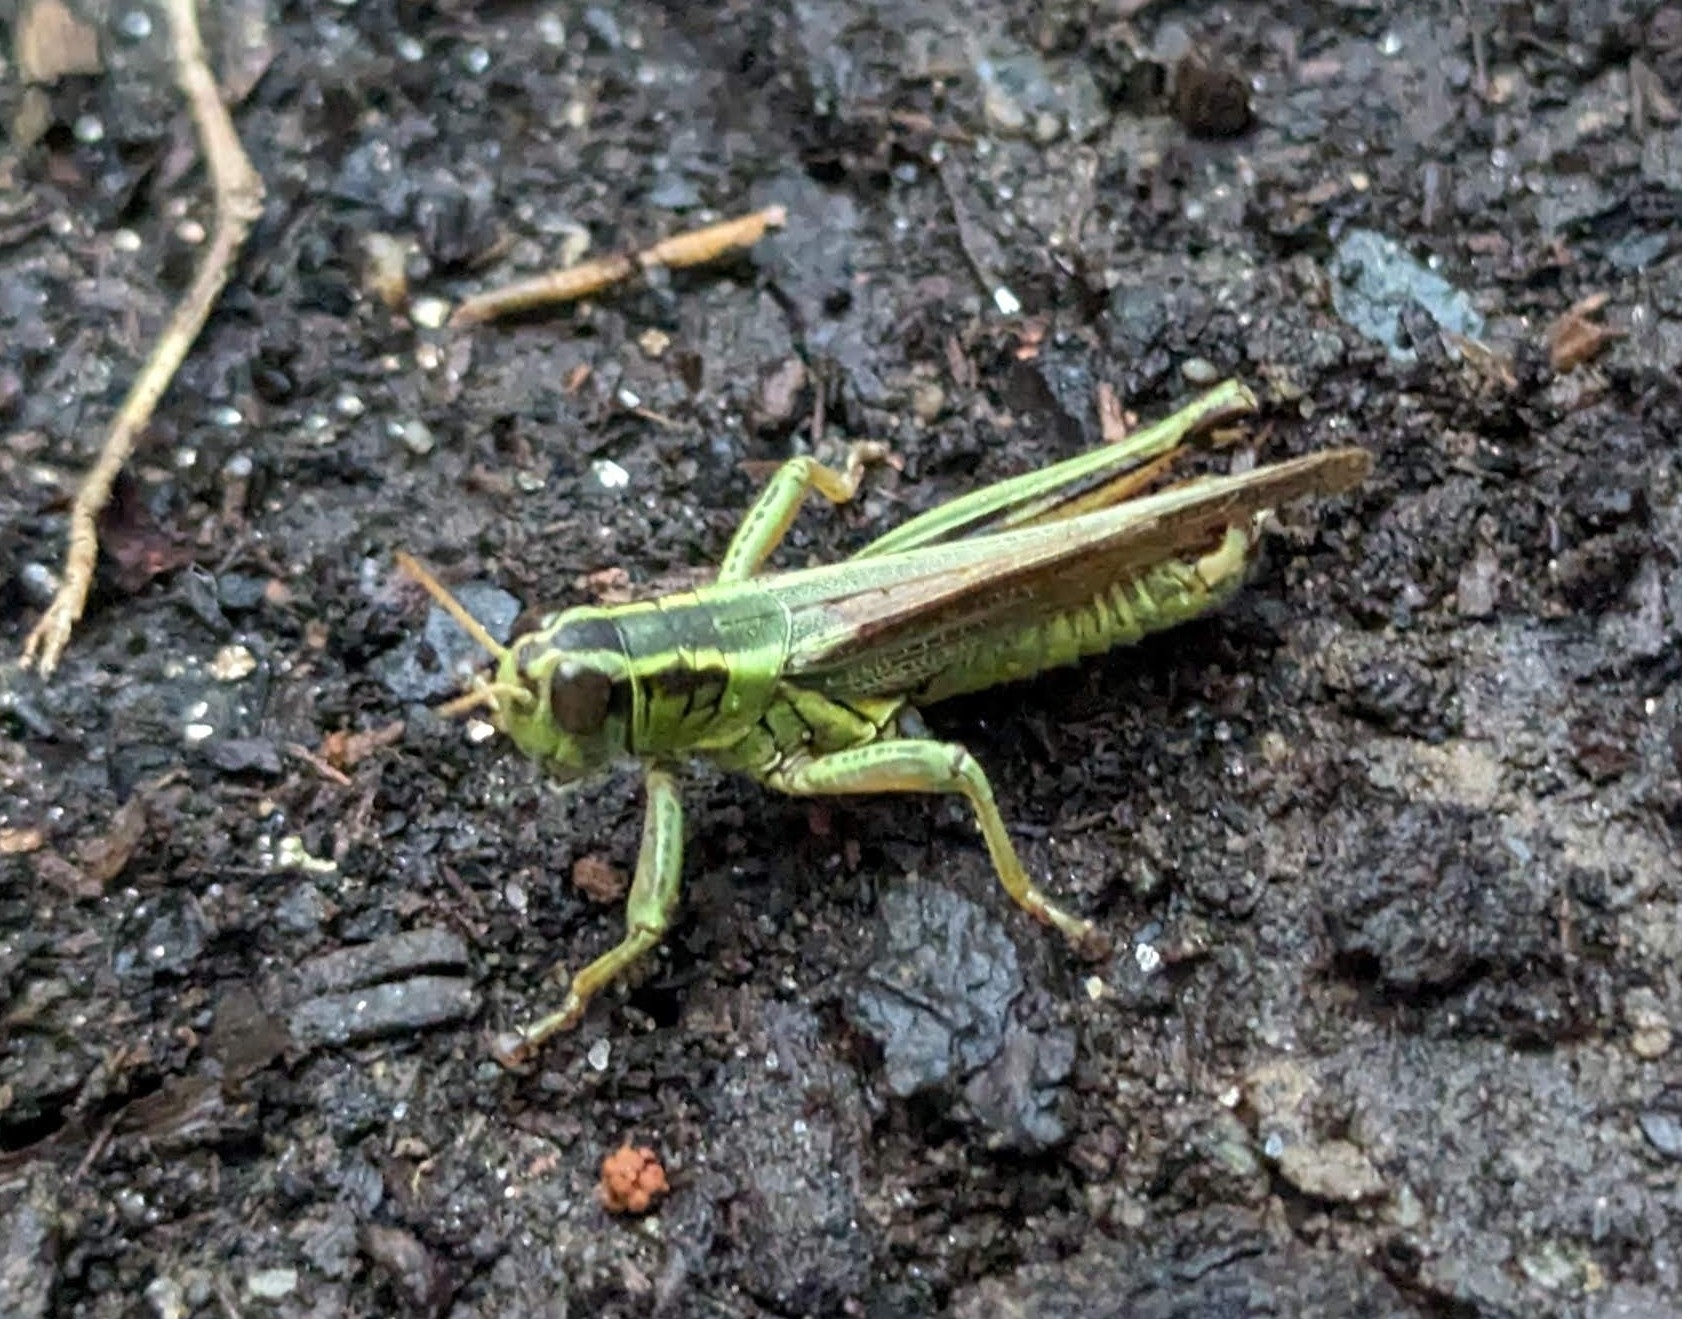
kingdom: Animalia
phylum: Arthropoda
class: Insecta
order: Orthoptera
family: Acrididae
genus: Melanoplus
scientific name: Melanoplus bivittatus
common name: Two-striped grasshopper
